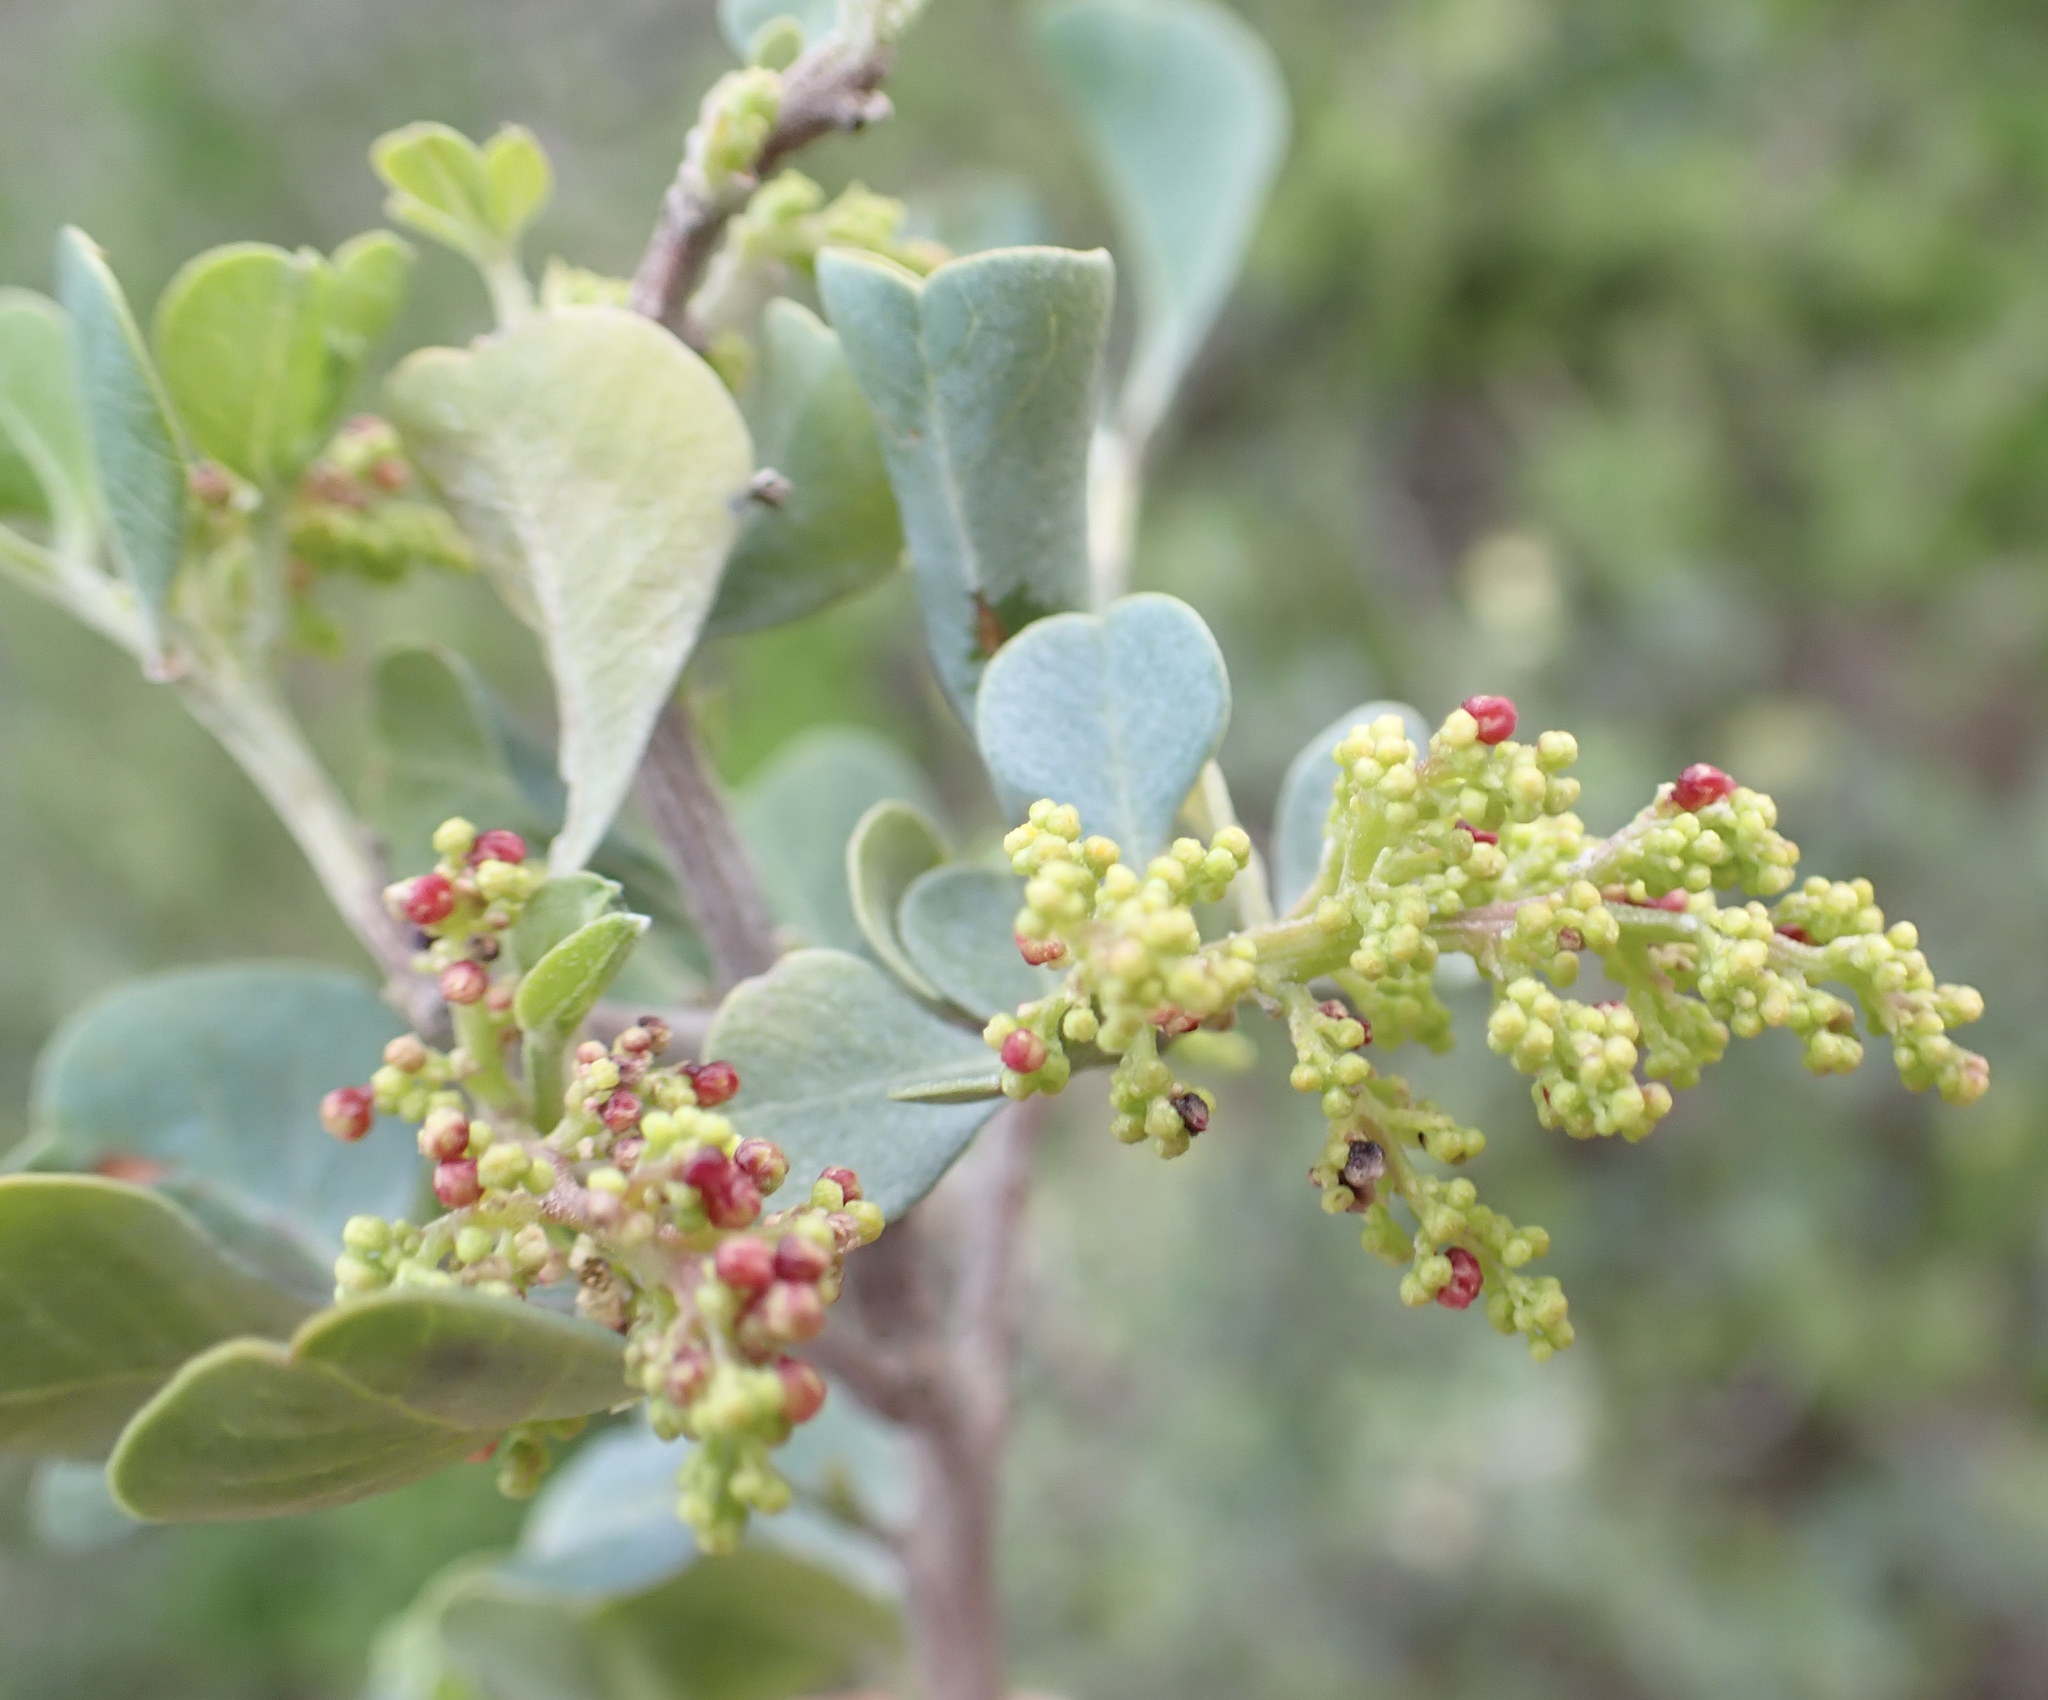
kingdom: Plantae
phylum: Tracheophyta
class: Magnoliopsida
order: Sapindales
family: Anacardiaceae
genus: Searsia
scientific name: Searsia glauca
